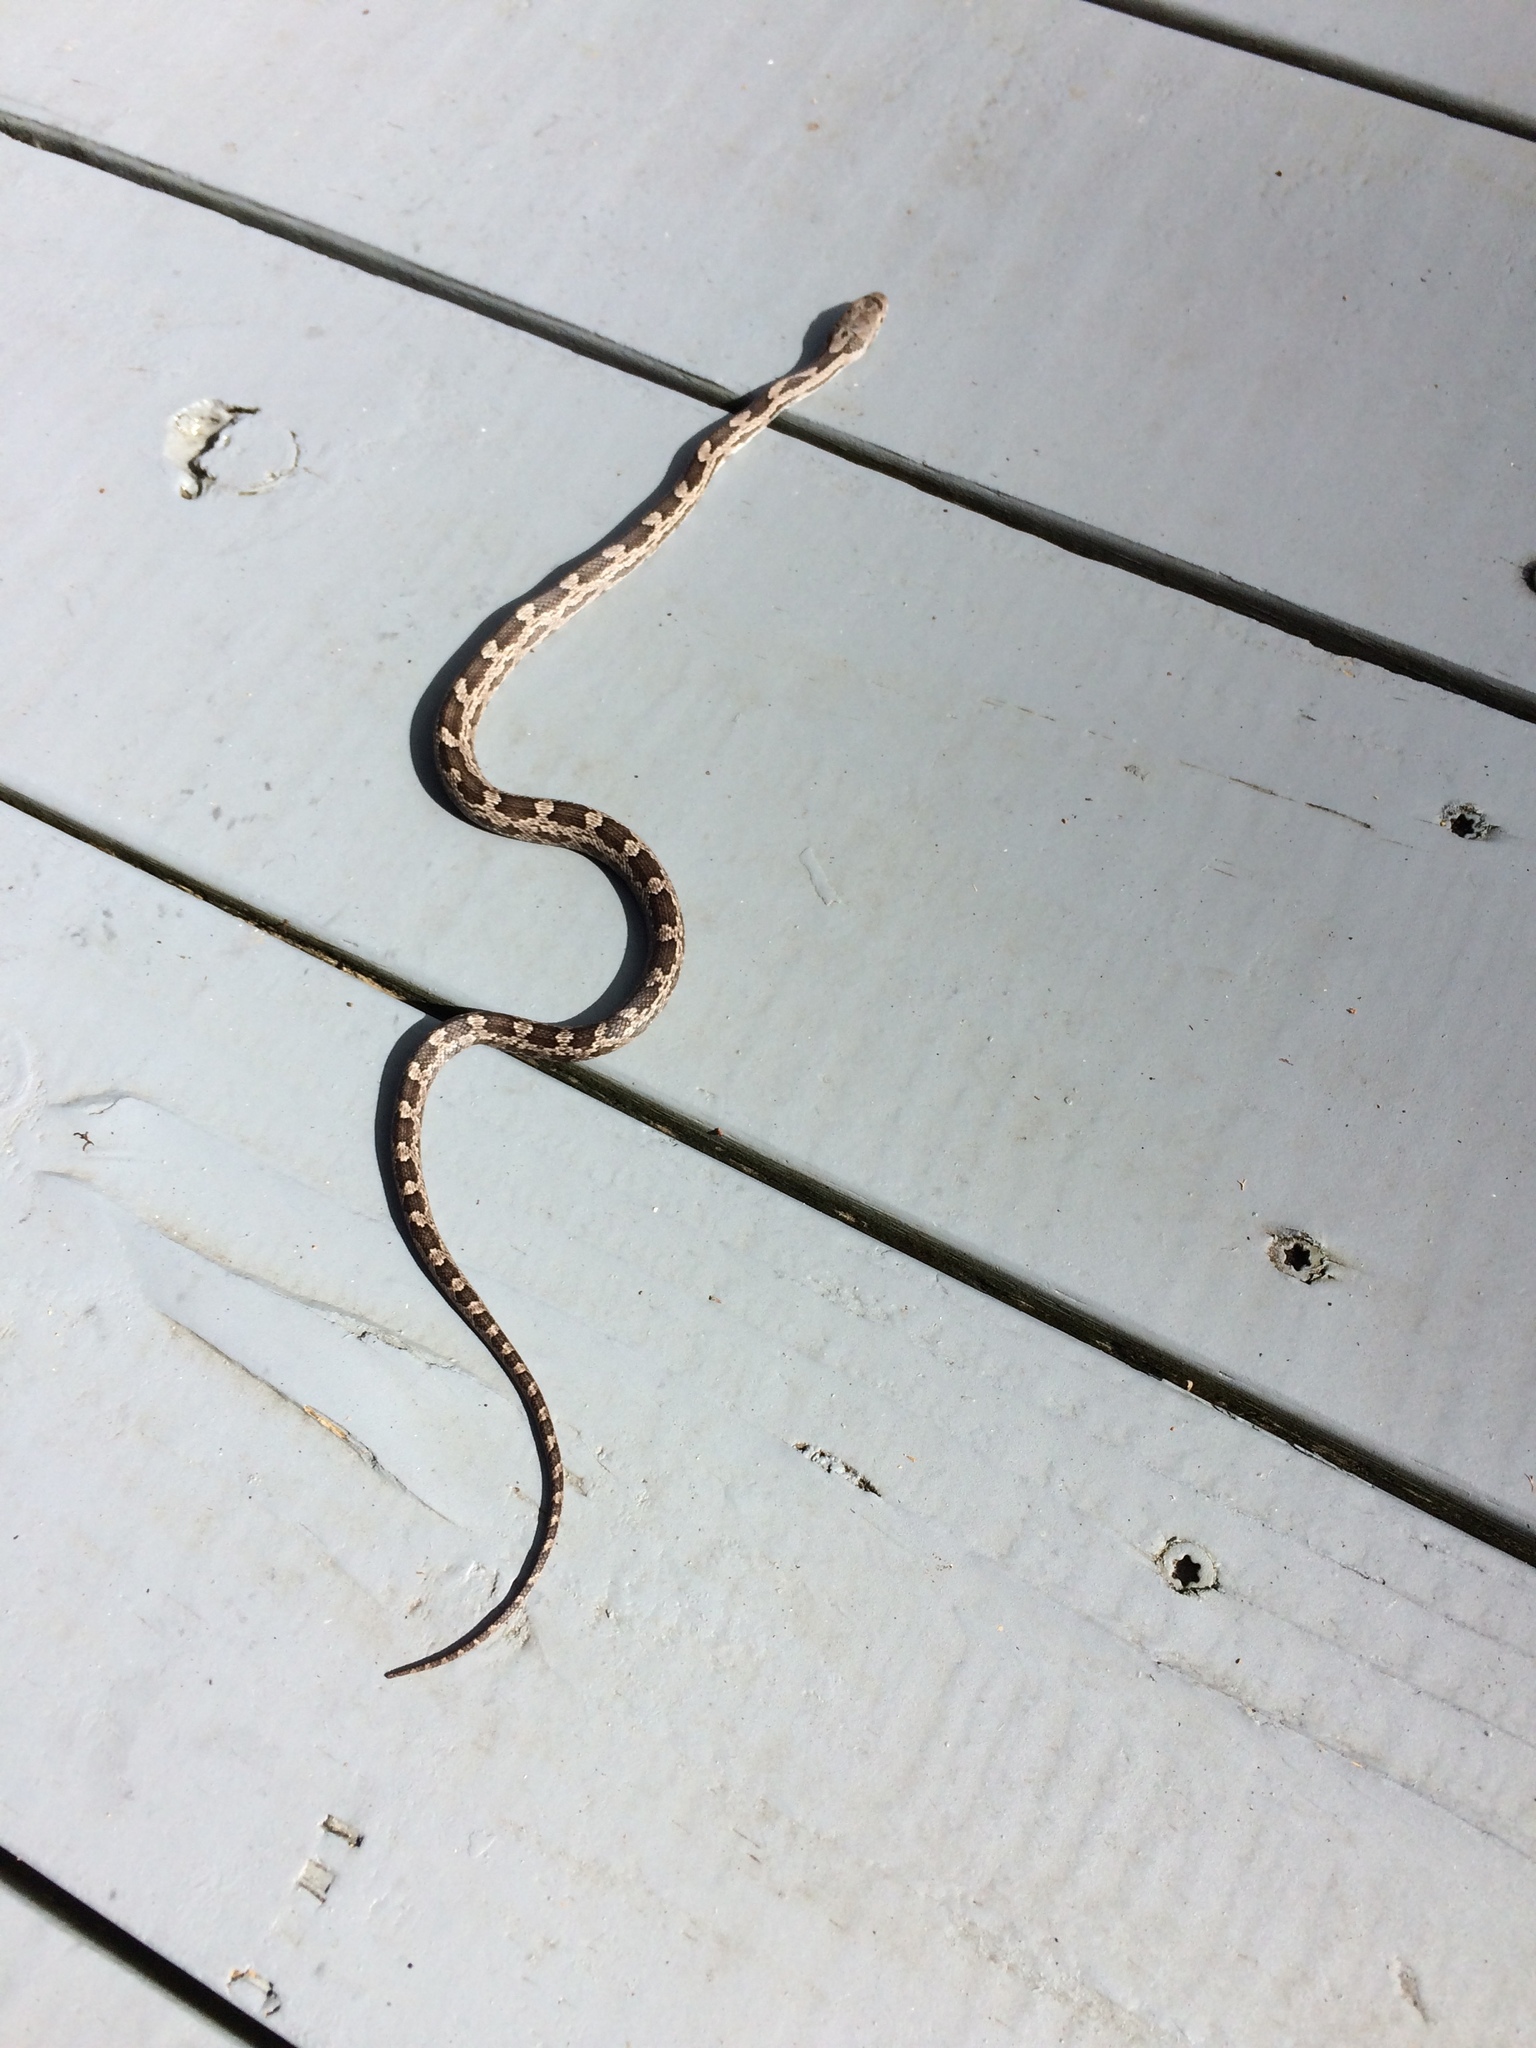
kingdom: Animalia
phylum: Chordata
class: Squamata
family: Colubridae
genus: Pantherophis
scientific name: Pantherophis alleghaniensis
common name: Eastern rat snake
